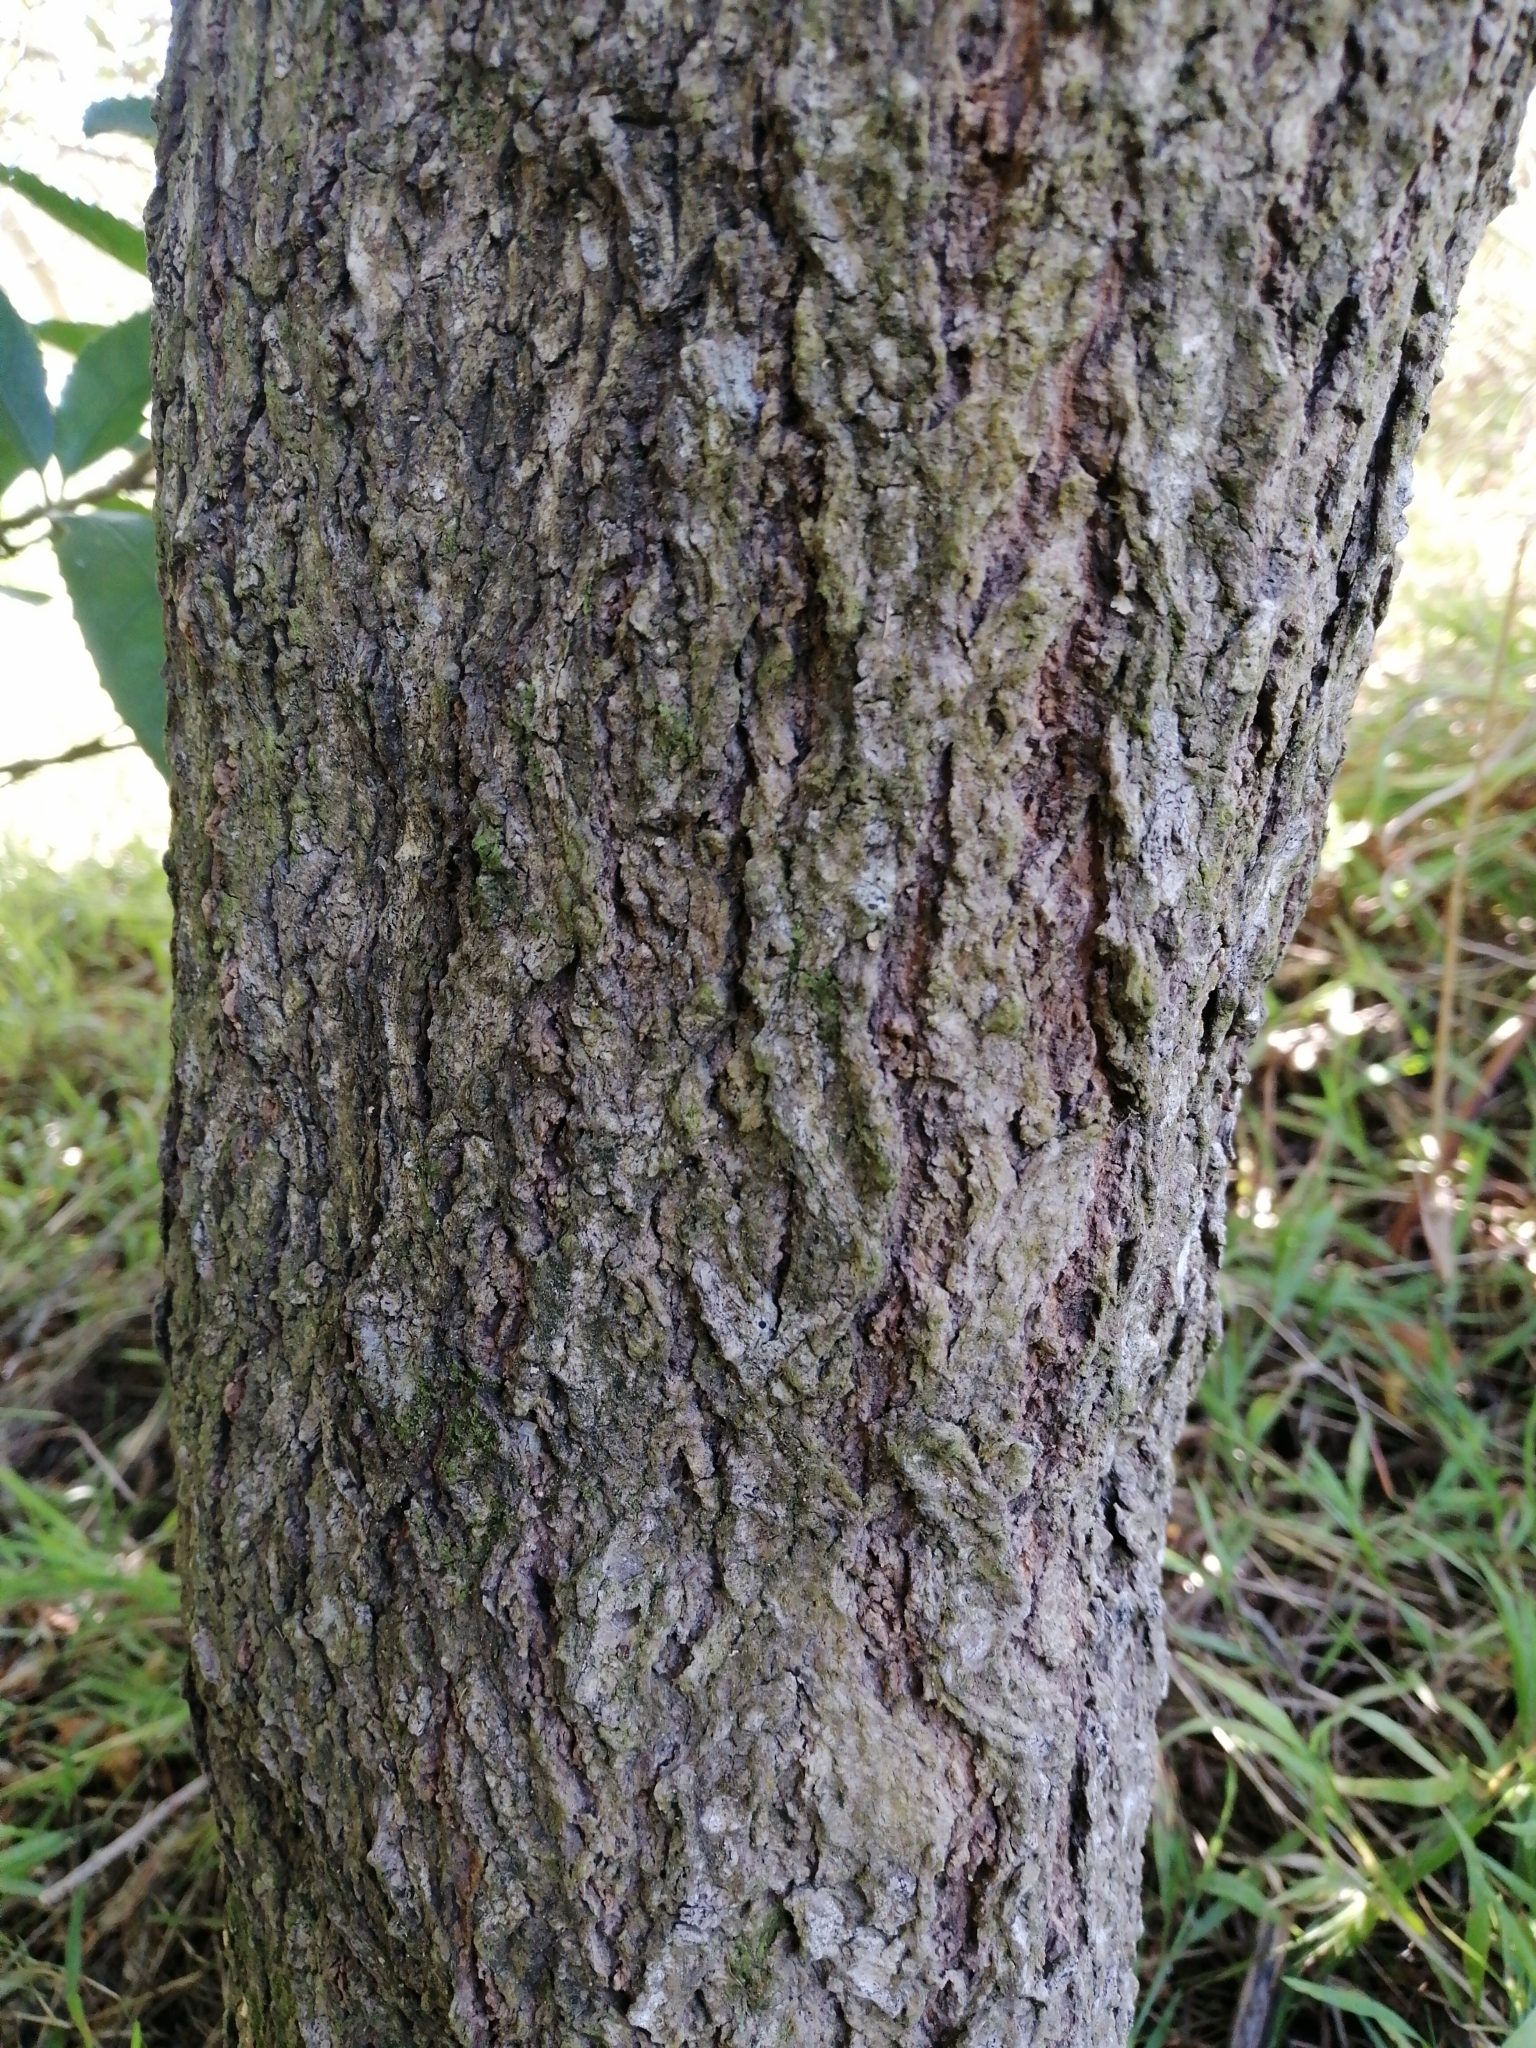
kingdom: Plantae
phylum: Tracheophyta
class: Magnoliopsida
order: Lamiales
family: Scrophulariaceae
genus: Myoporum
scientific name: Myoporum laetum
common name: Ngaio tree
